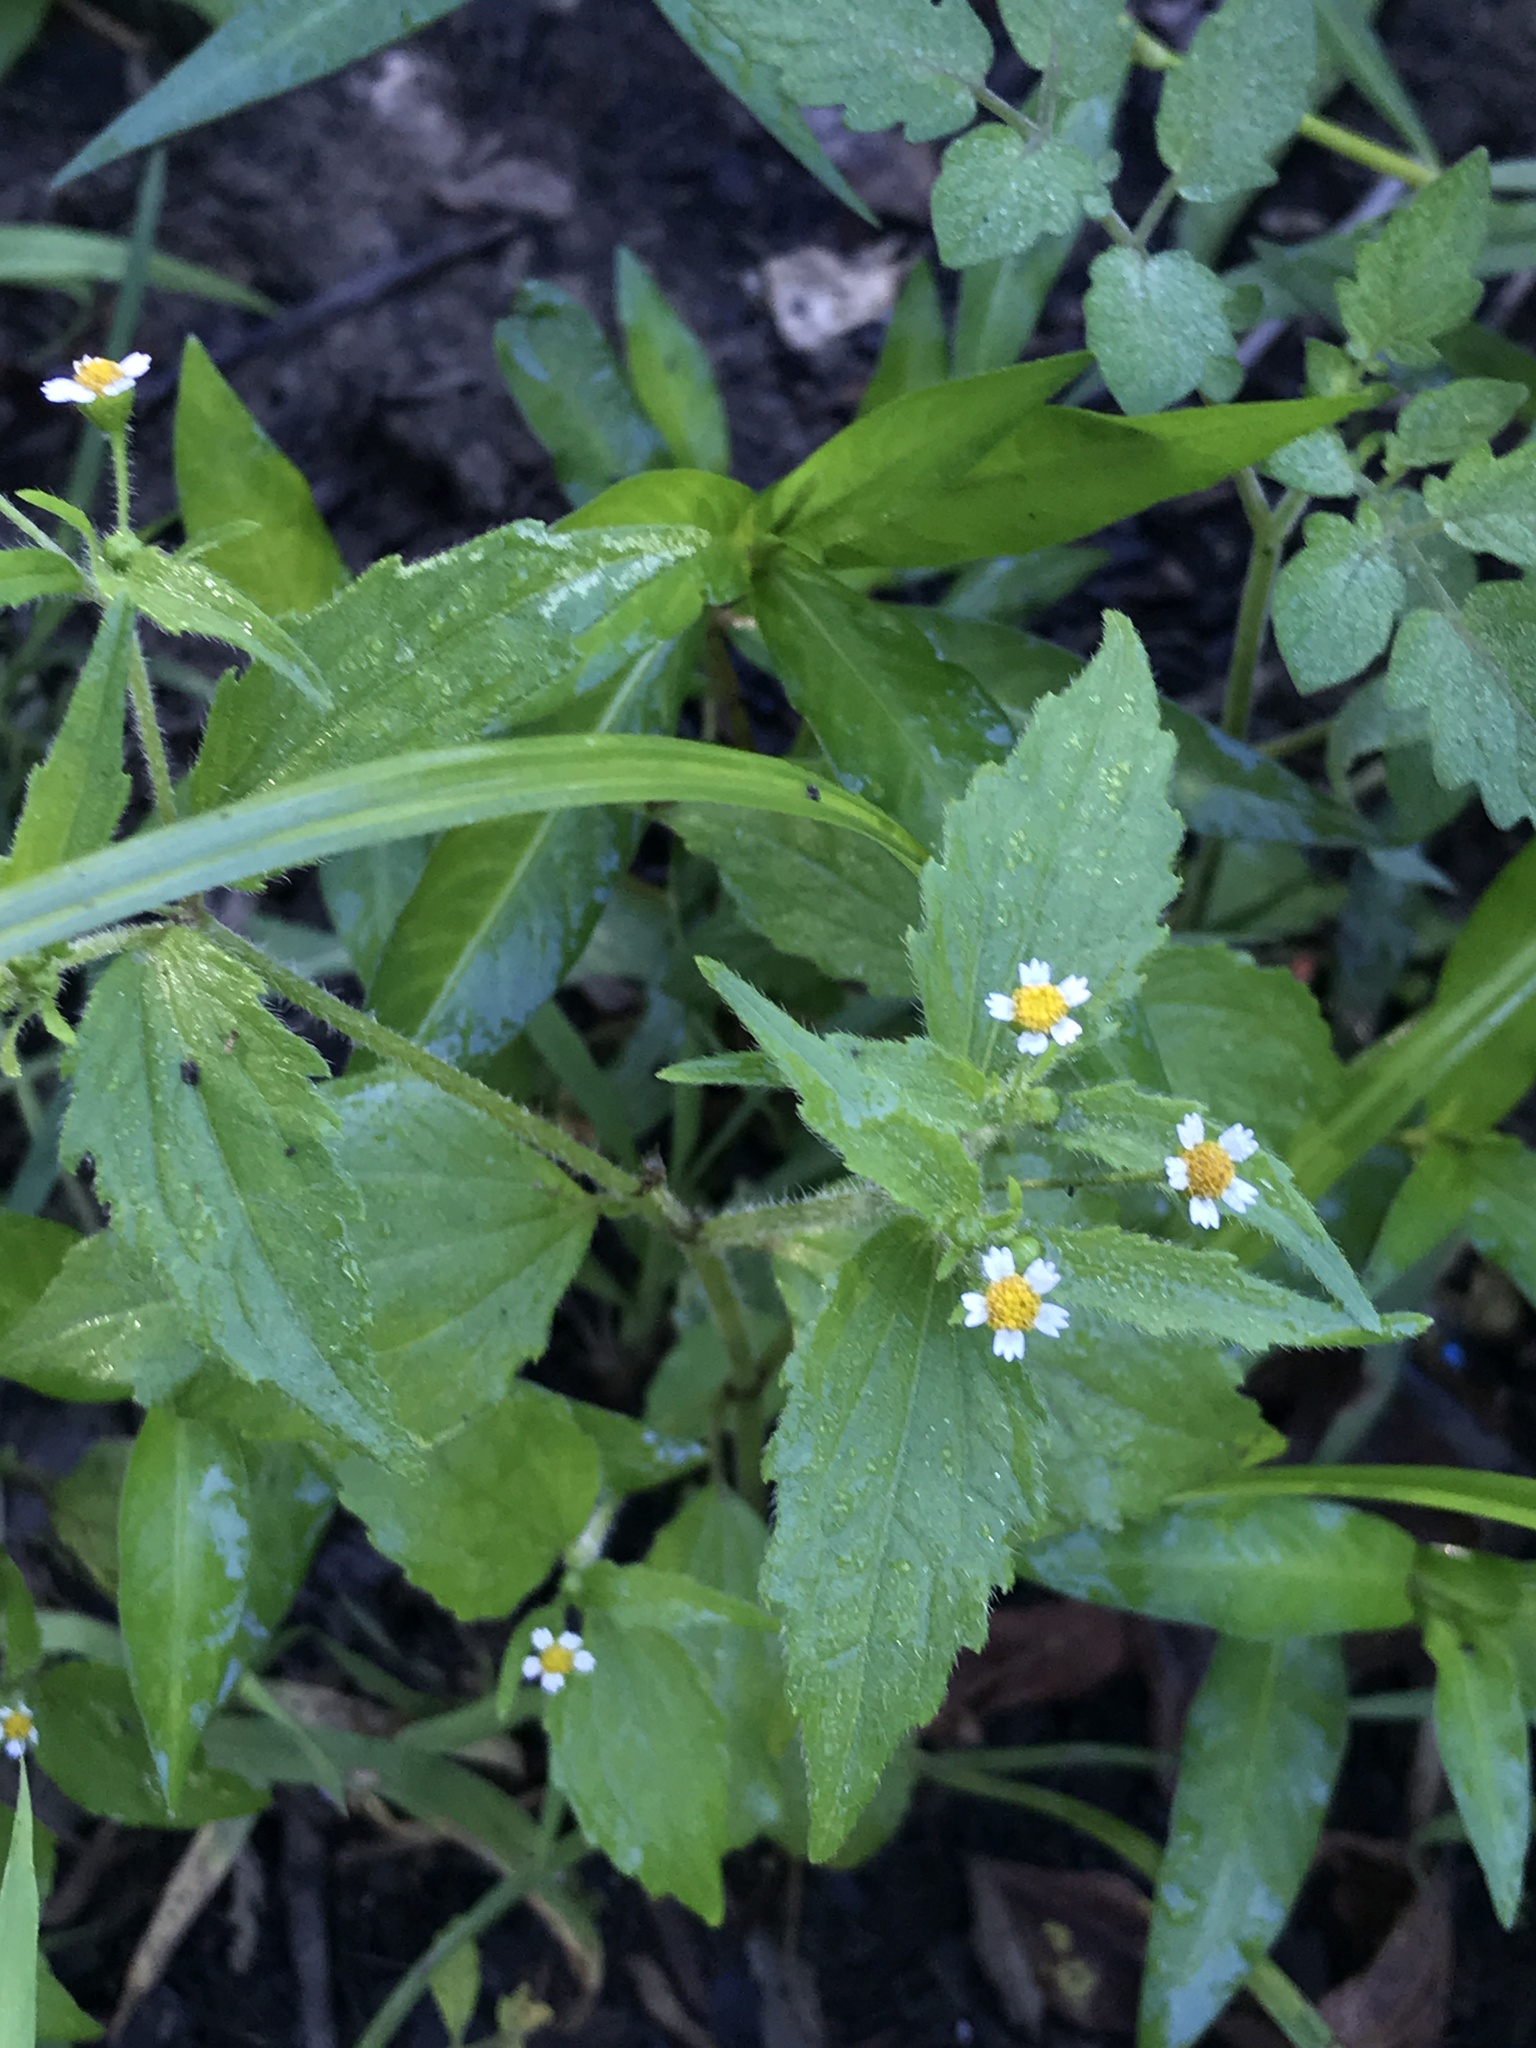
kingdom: Plantae
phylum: Tracheophyta
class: Magnoliopsida
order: Asterales
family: Asteraceae
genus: Galinsoga
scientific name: Galinsoga quadriradiata
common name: Shaggy soldier
